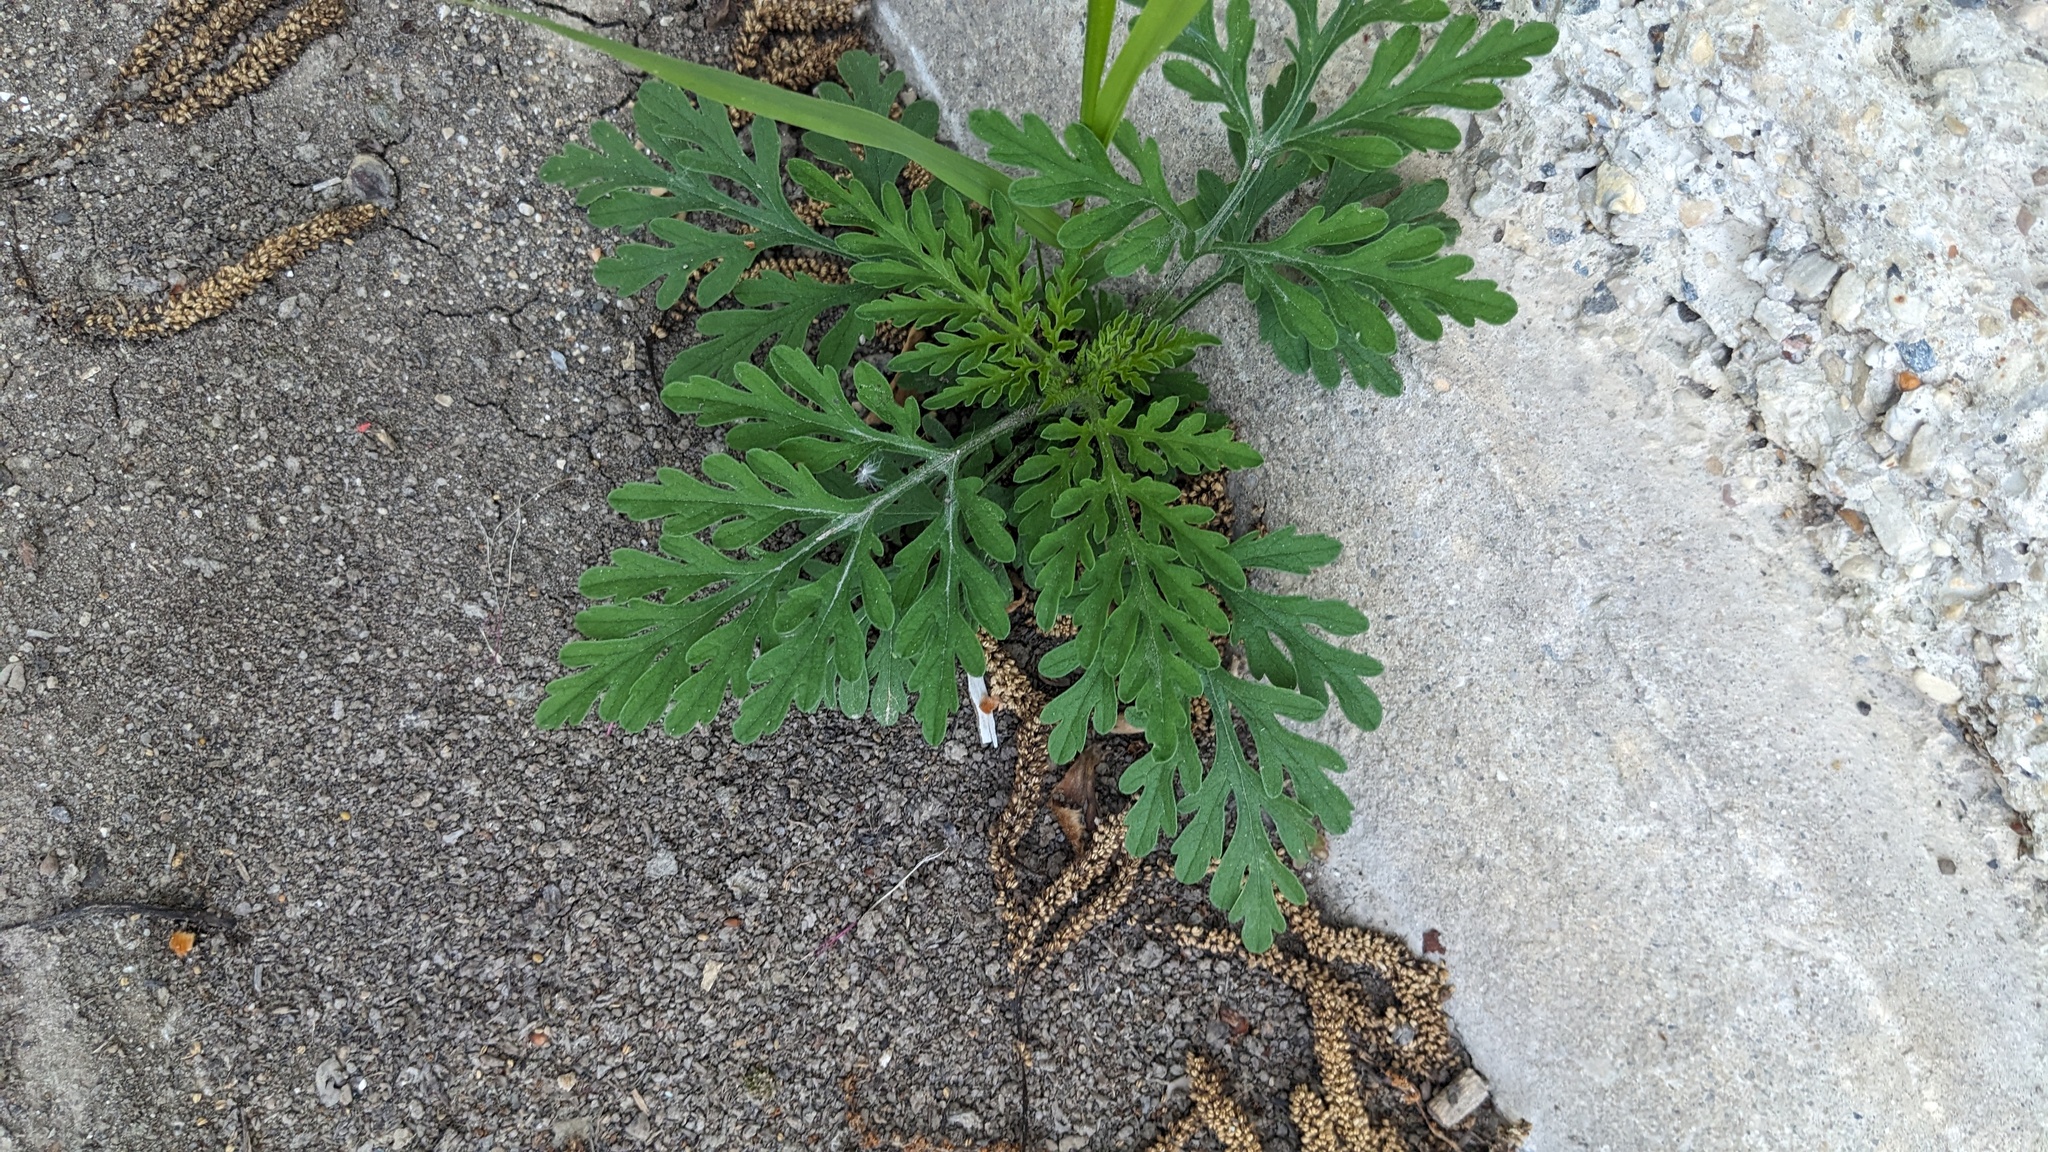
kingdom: Plantae
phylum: Tracheophyta
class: Magnoliopsida
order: Asterales
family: Asteraceae
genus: Ambrosia
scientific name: Ambrosia artemisiifolia
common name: Annual ragweed
